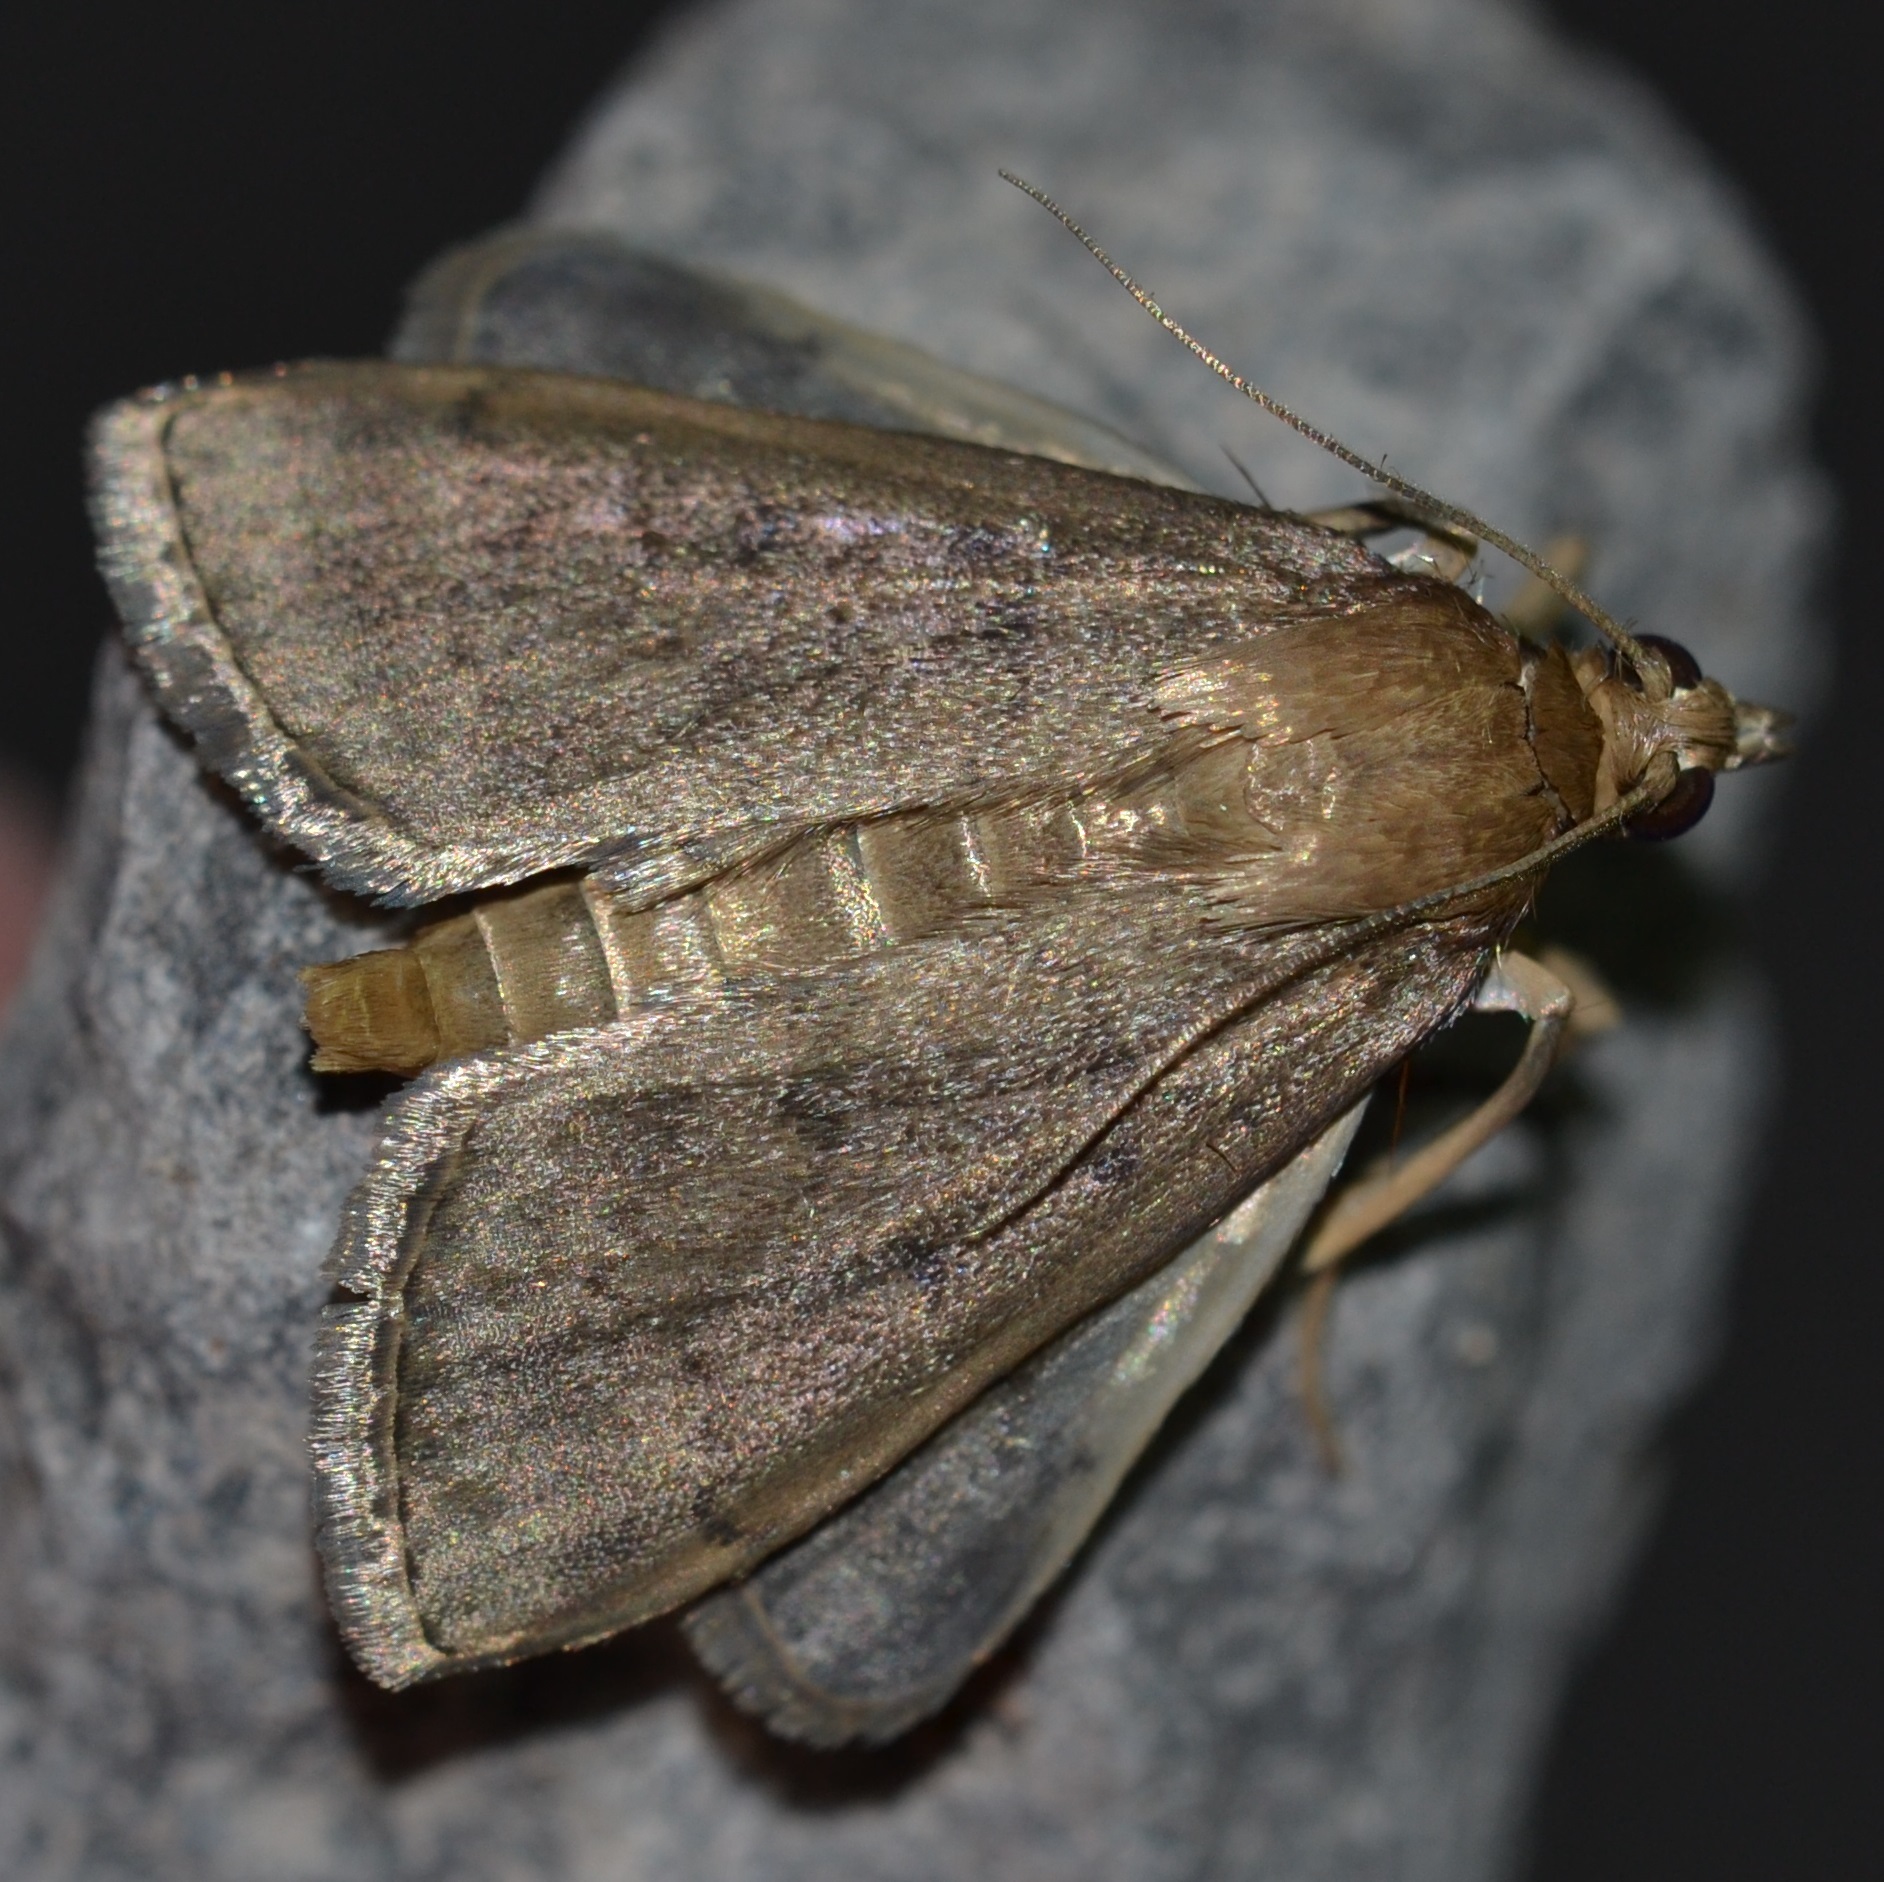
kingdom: Animalia
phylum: Arthropoda
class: Insecta
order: Lepidoptera
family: Crambidae
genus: Herpetogramma
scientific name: Herpetogramma licarsisalis
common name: Grass webworm
